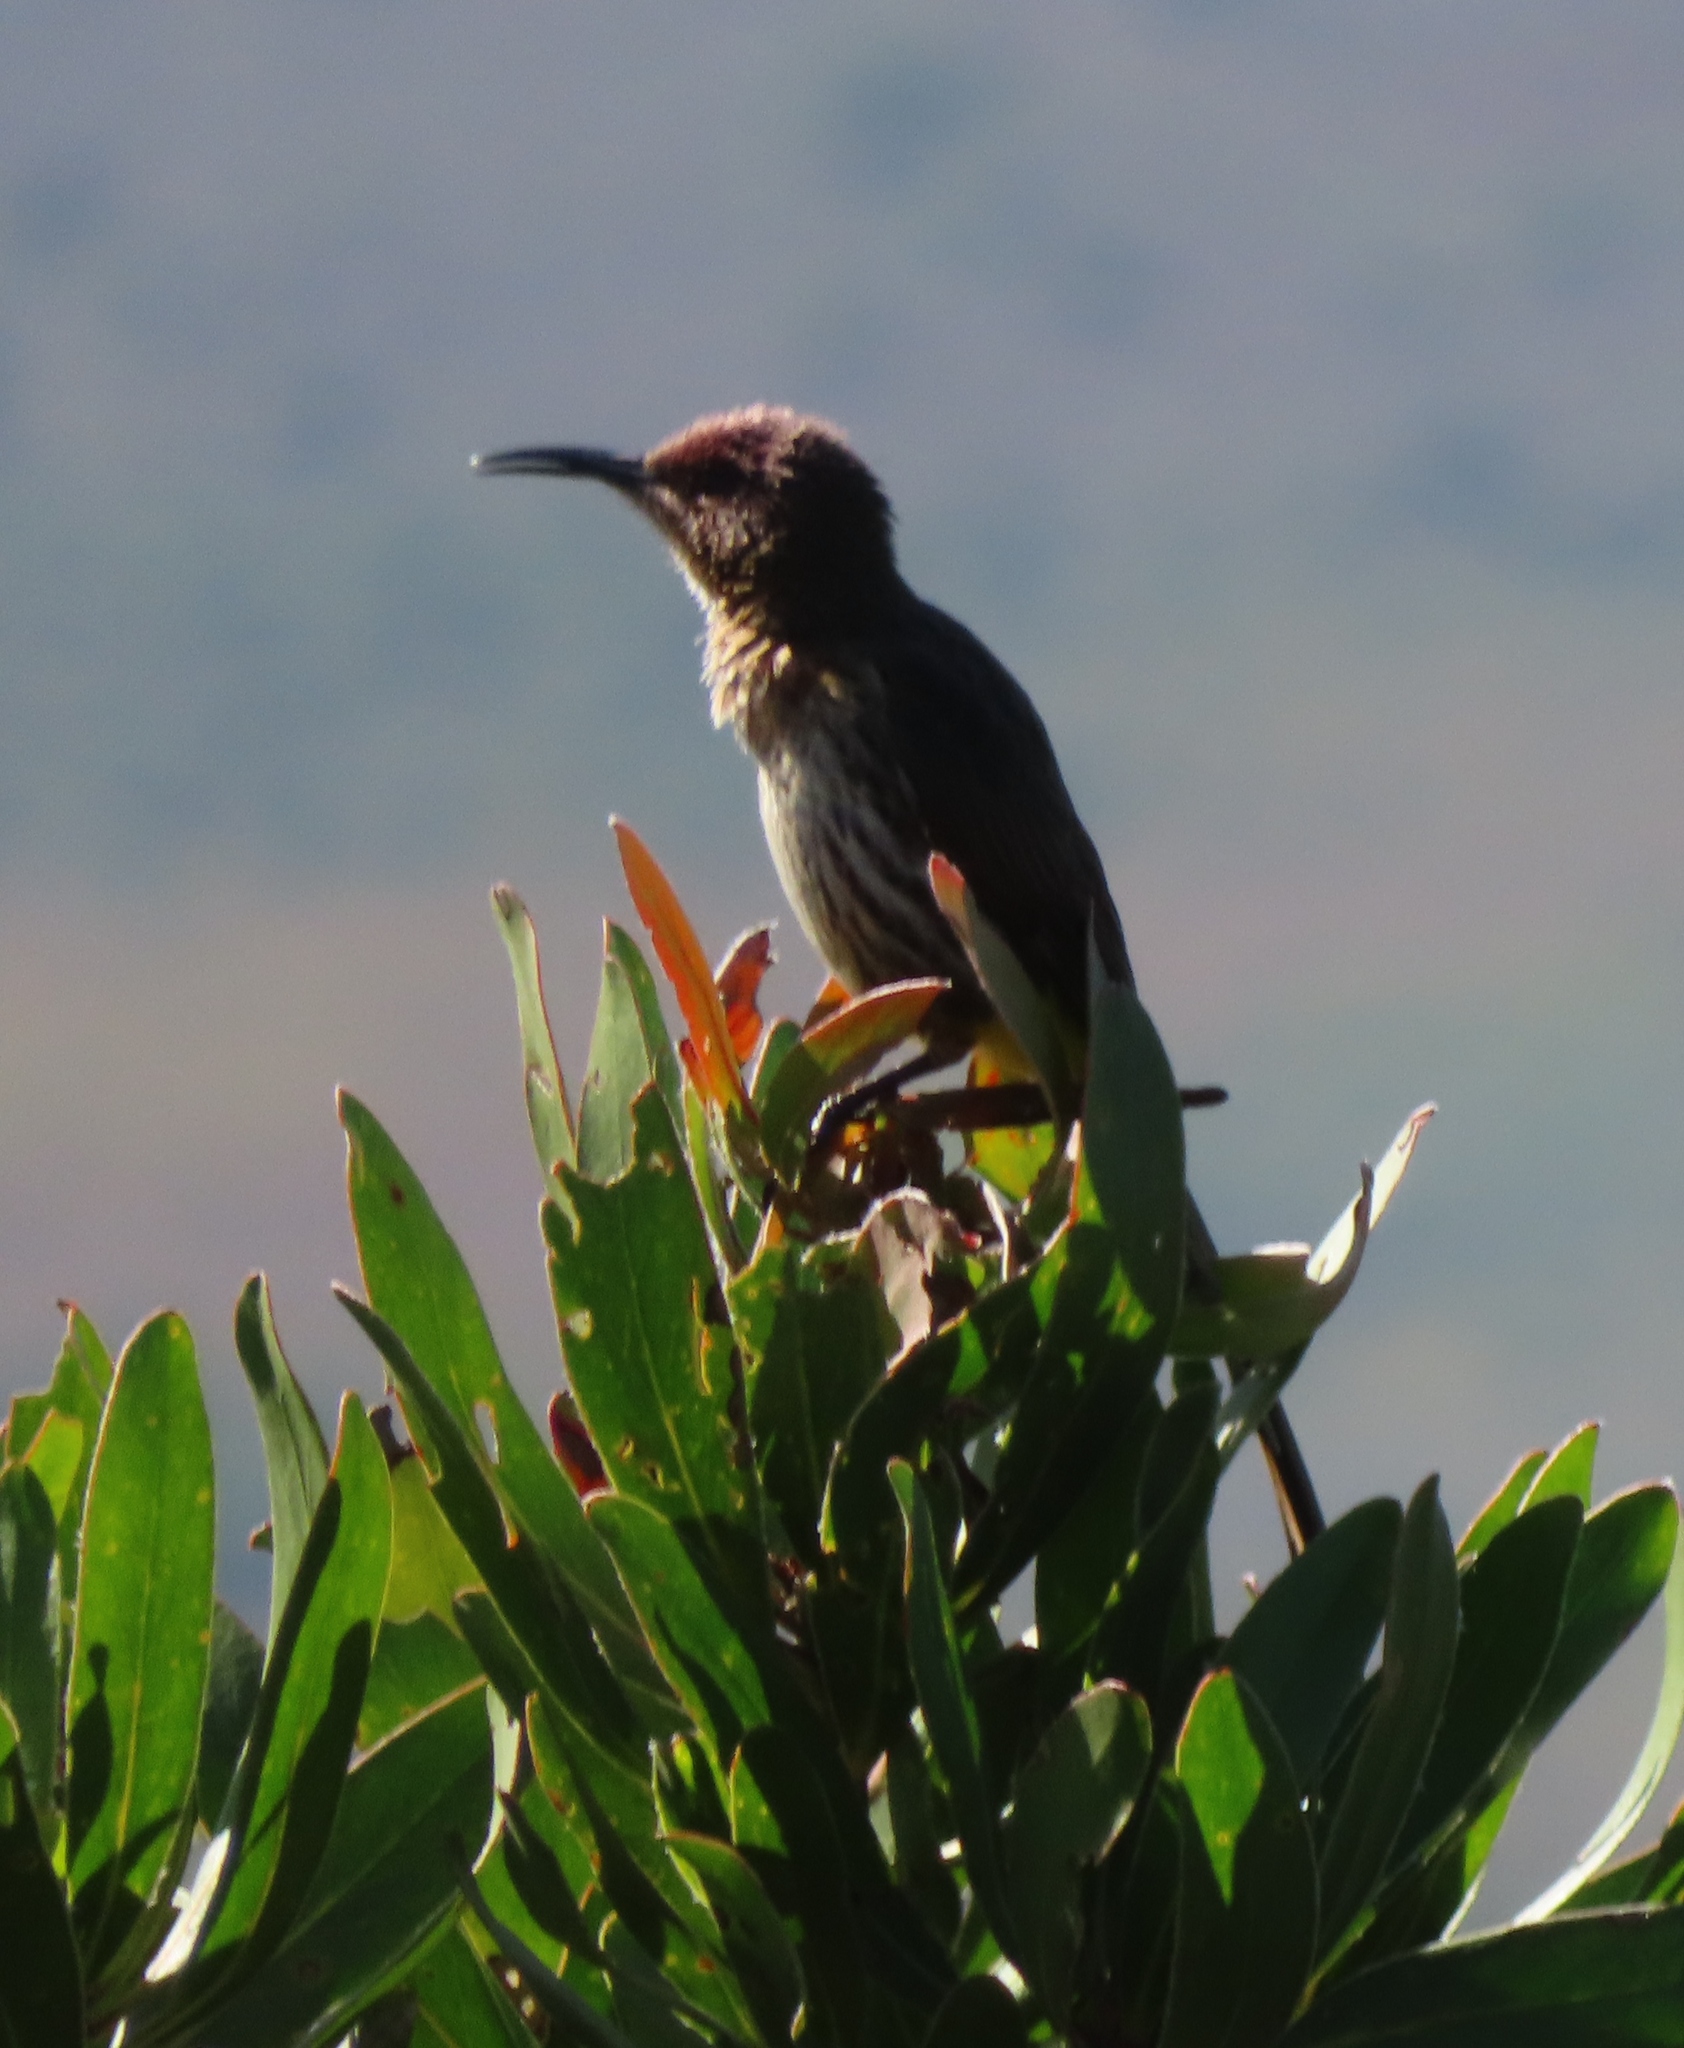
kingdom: Animalia
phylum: Chordata
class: Aves
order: Passeriformes
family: Promeropidae
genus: Promerops
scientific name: Promerops cafer
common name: Cape sugarbird
